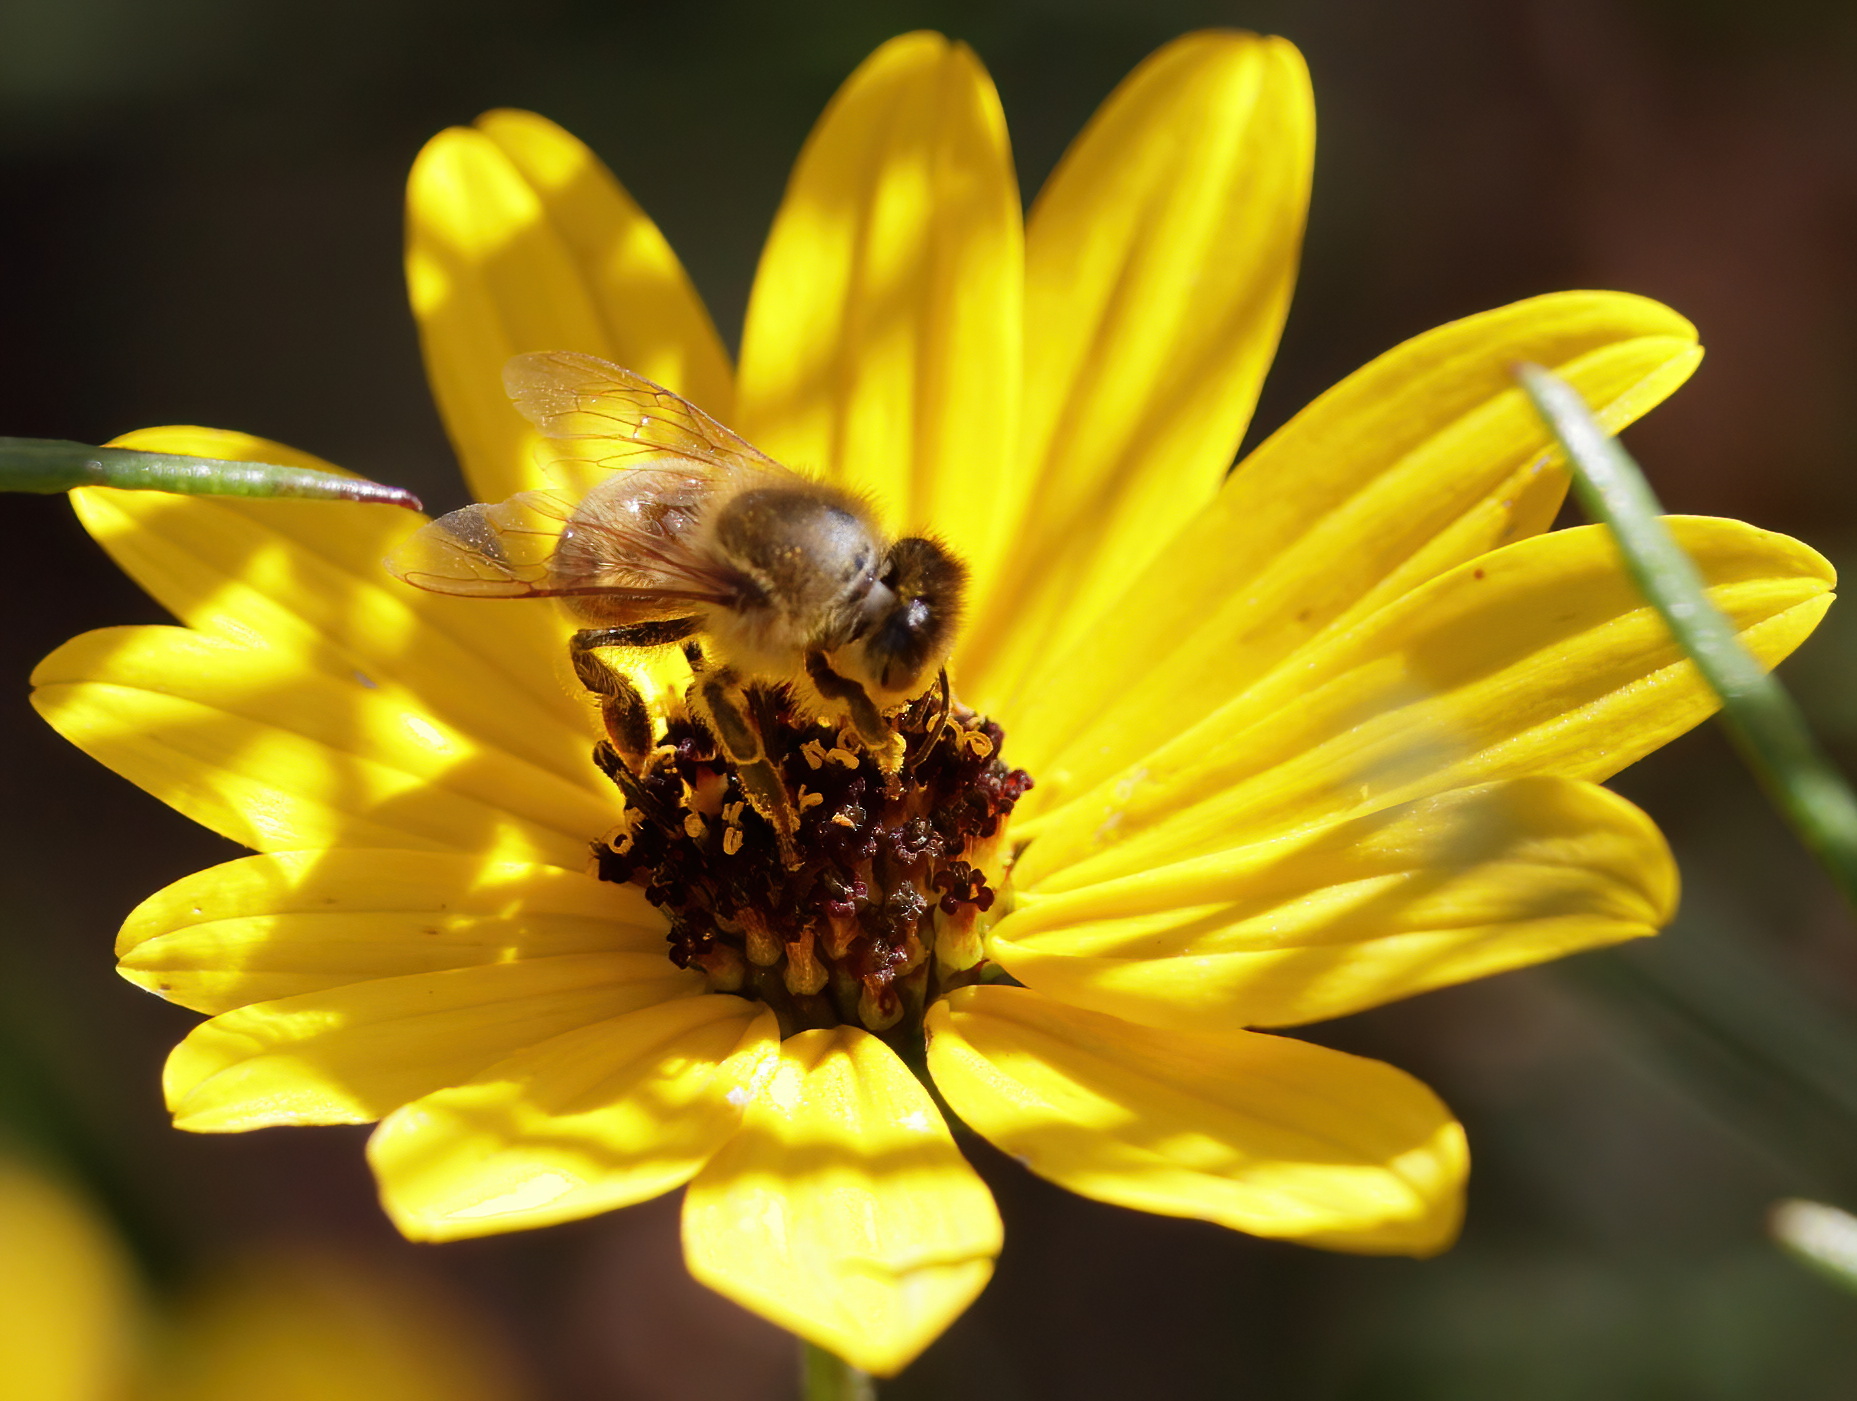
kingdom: Animalia
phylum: Arthropoda
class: Insecta
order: Hymenoptera
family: Apidae
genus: Apis
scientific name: Apis mellifera
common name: Honey bee
